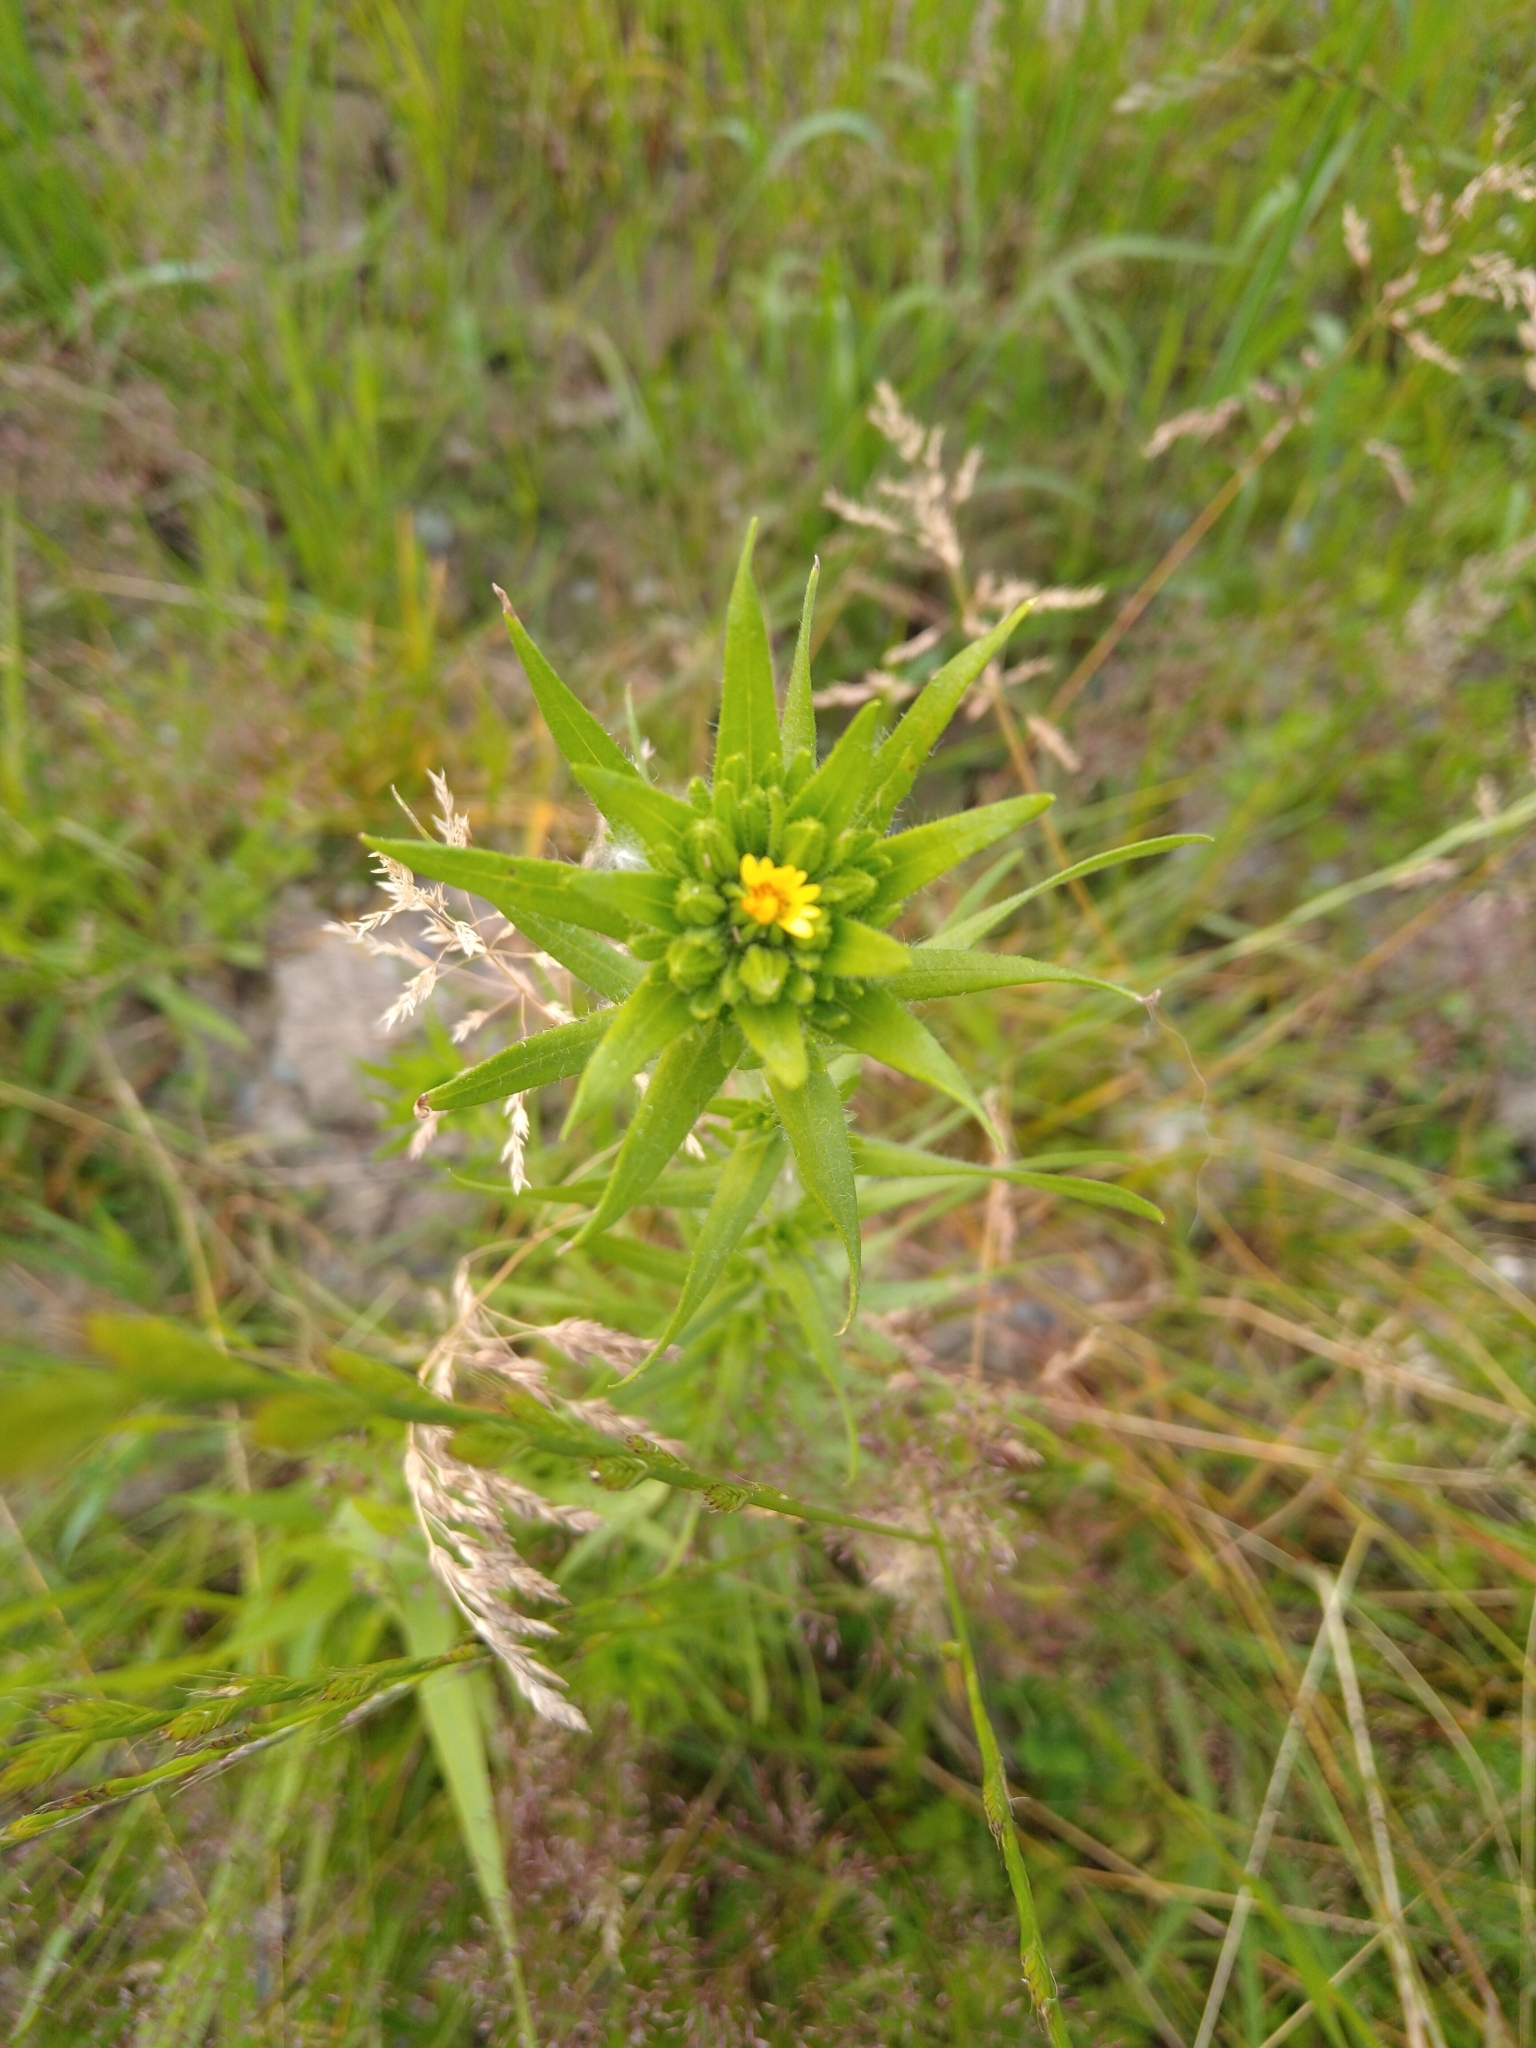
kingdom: Plantae
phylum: Tracheophyta
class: Magnoliopsida
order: Brassicales
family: Brassicaceae
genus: Erysimum
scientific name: Erysimum cheiranthoides
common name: Treacle mustard
